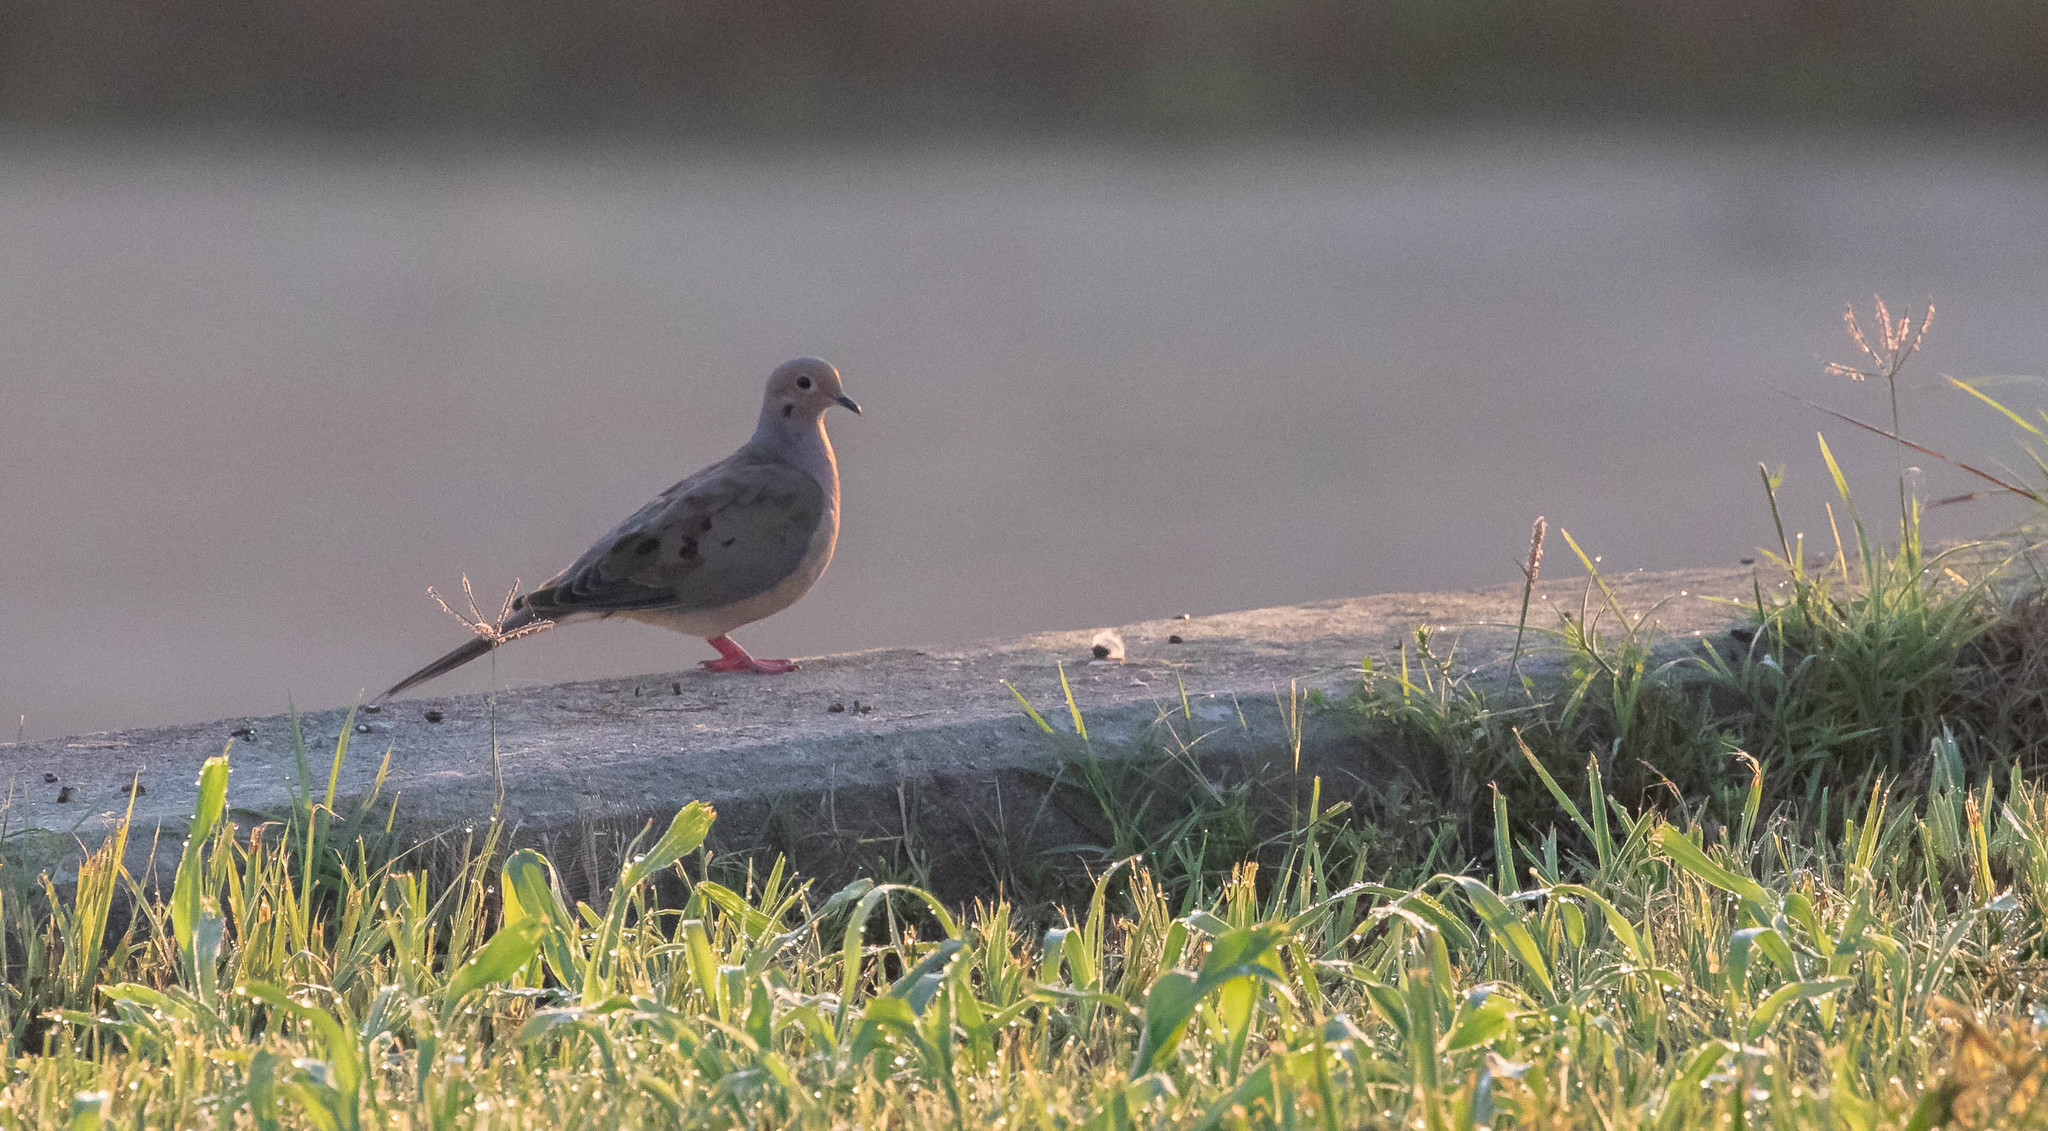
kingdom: Animalia
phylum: Chordata
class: Aves
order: Columbiformes
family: Columbidae
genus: Zenaida
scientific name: Zenaida macroura
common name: Mourning dove
